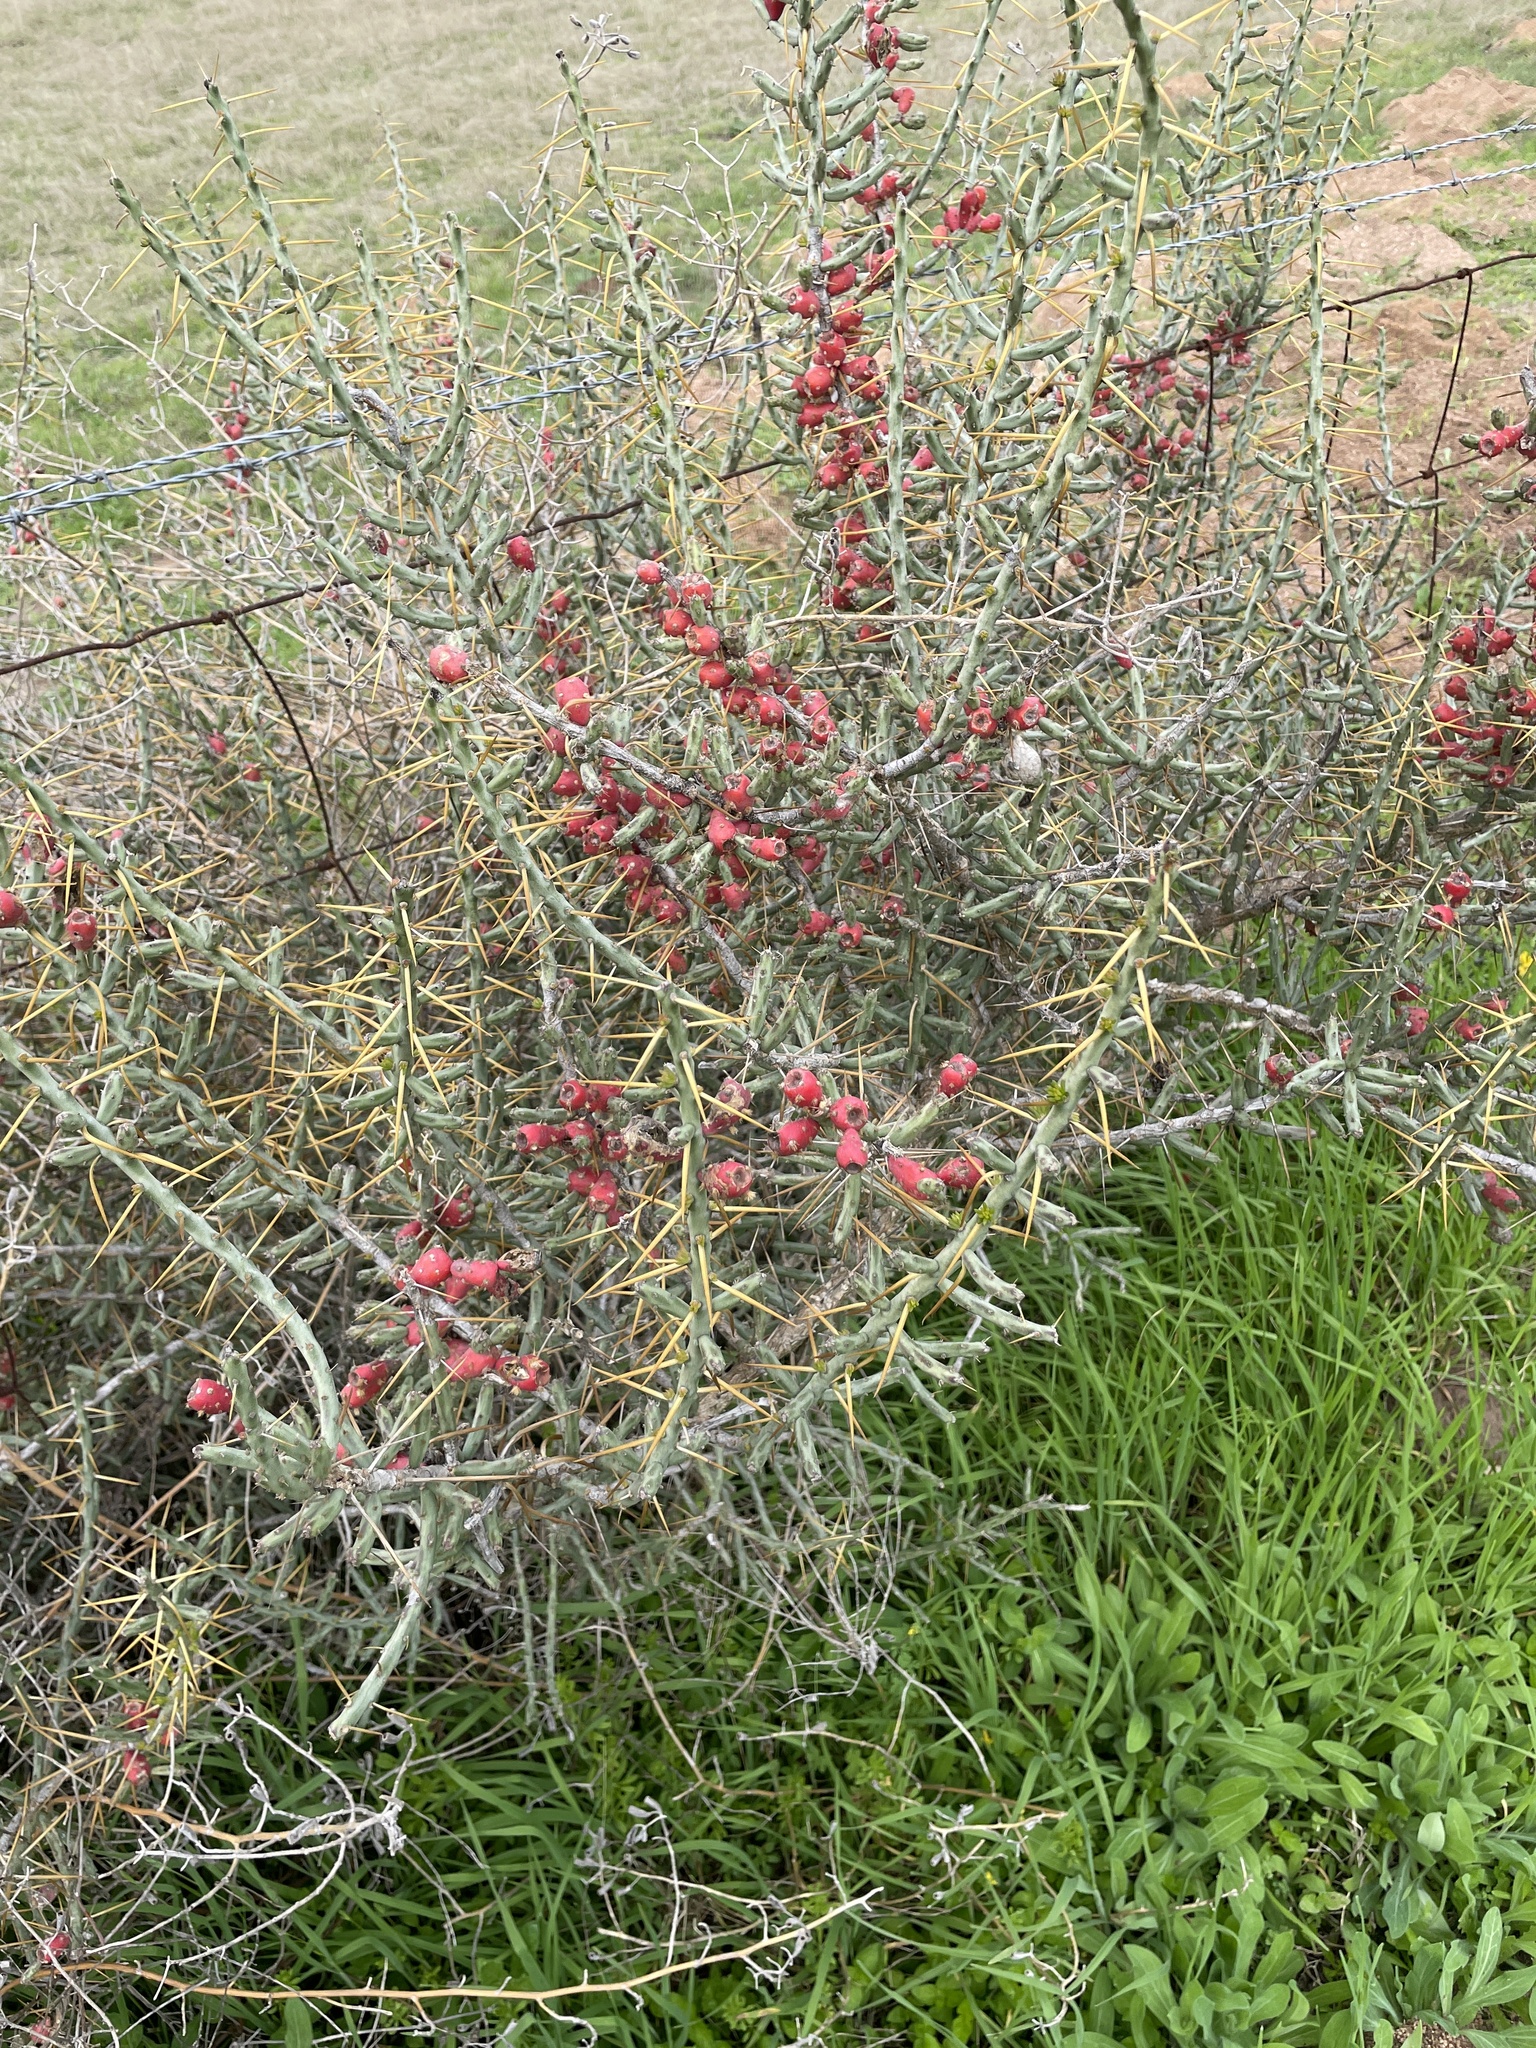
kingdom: Plantae
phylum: Tracheophyta
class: Magnoliopsida
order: Caryophyllales
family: Cactaceae
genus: Cylindropuntia
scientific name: Cylindropuntia leptocaulis
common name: Christmas cactus
